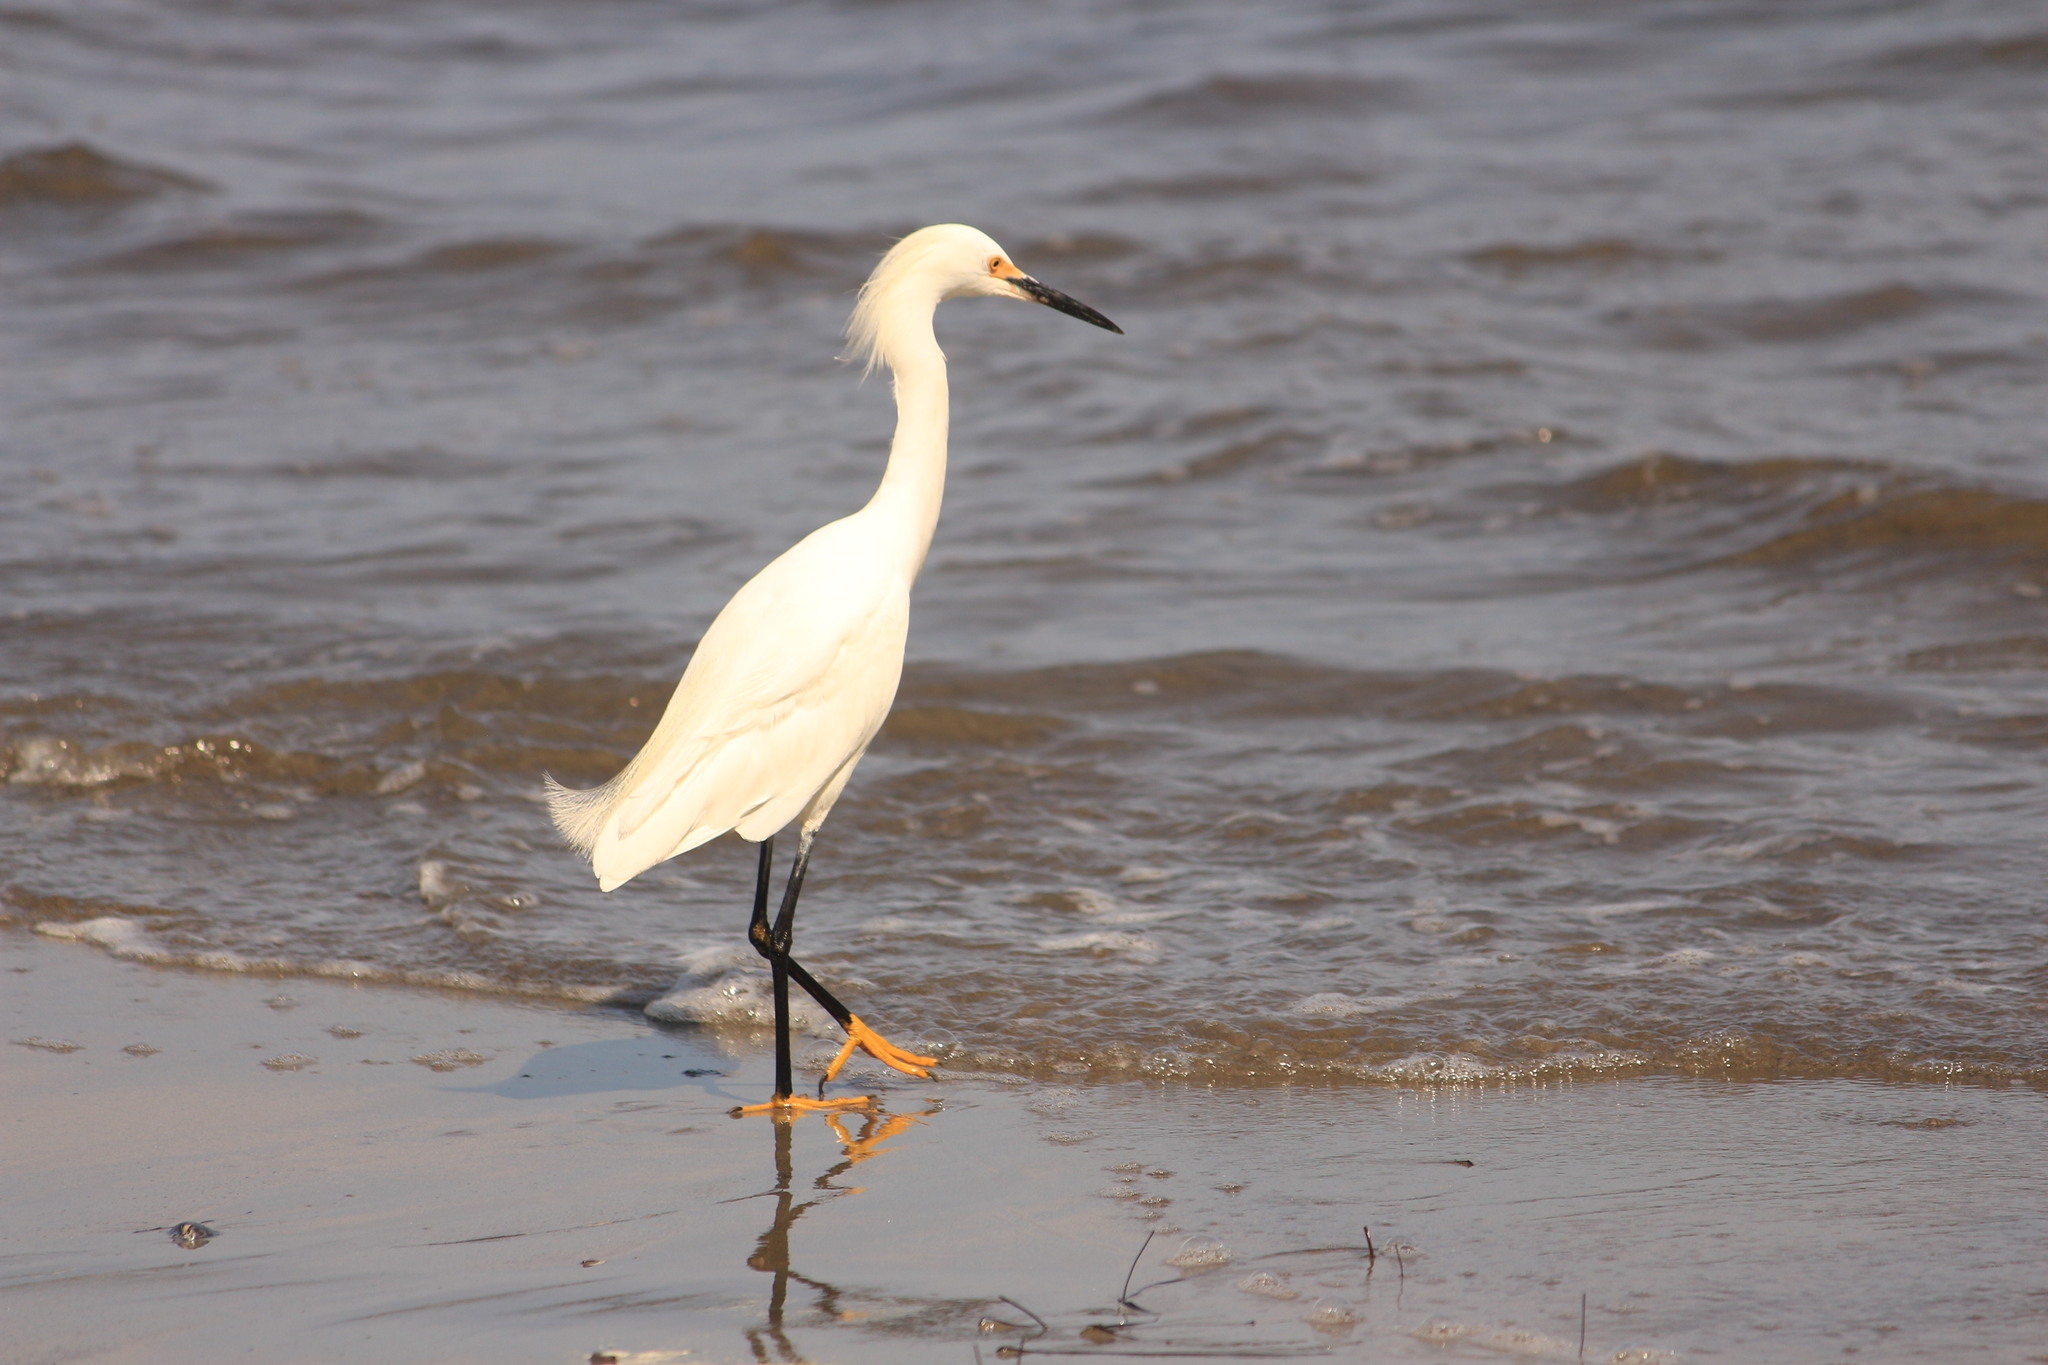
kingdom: Animalia
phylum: Chordata
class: Aves
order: Pelecaniformes
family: Ardeidae
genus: Egretta
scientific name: Egretta thula
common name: Snowy egret
